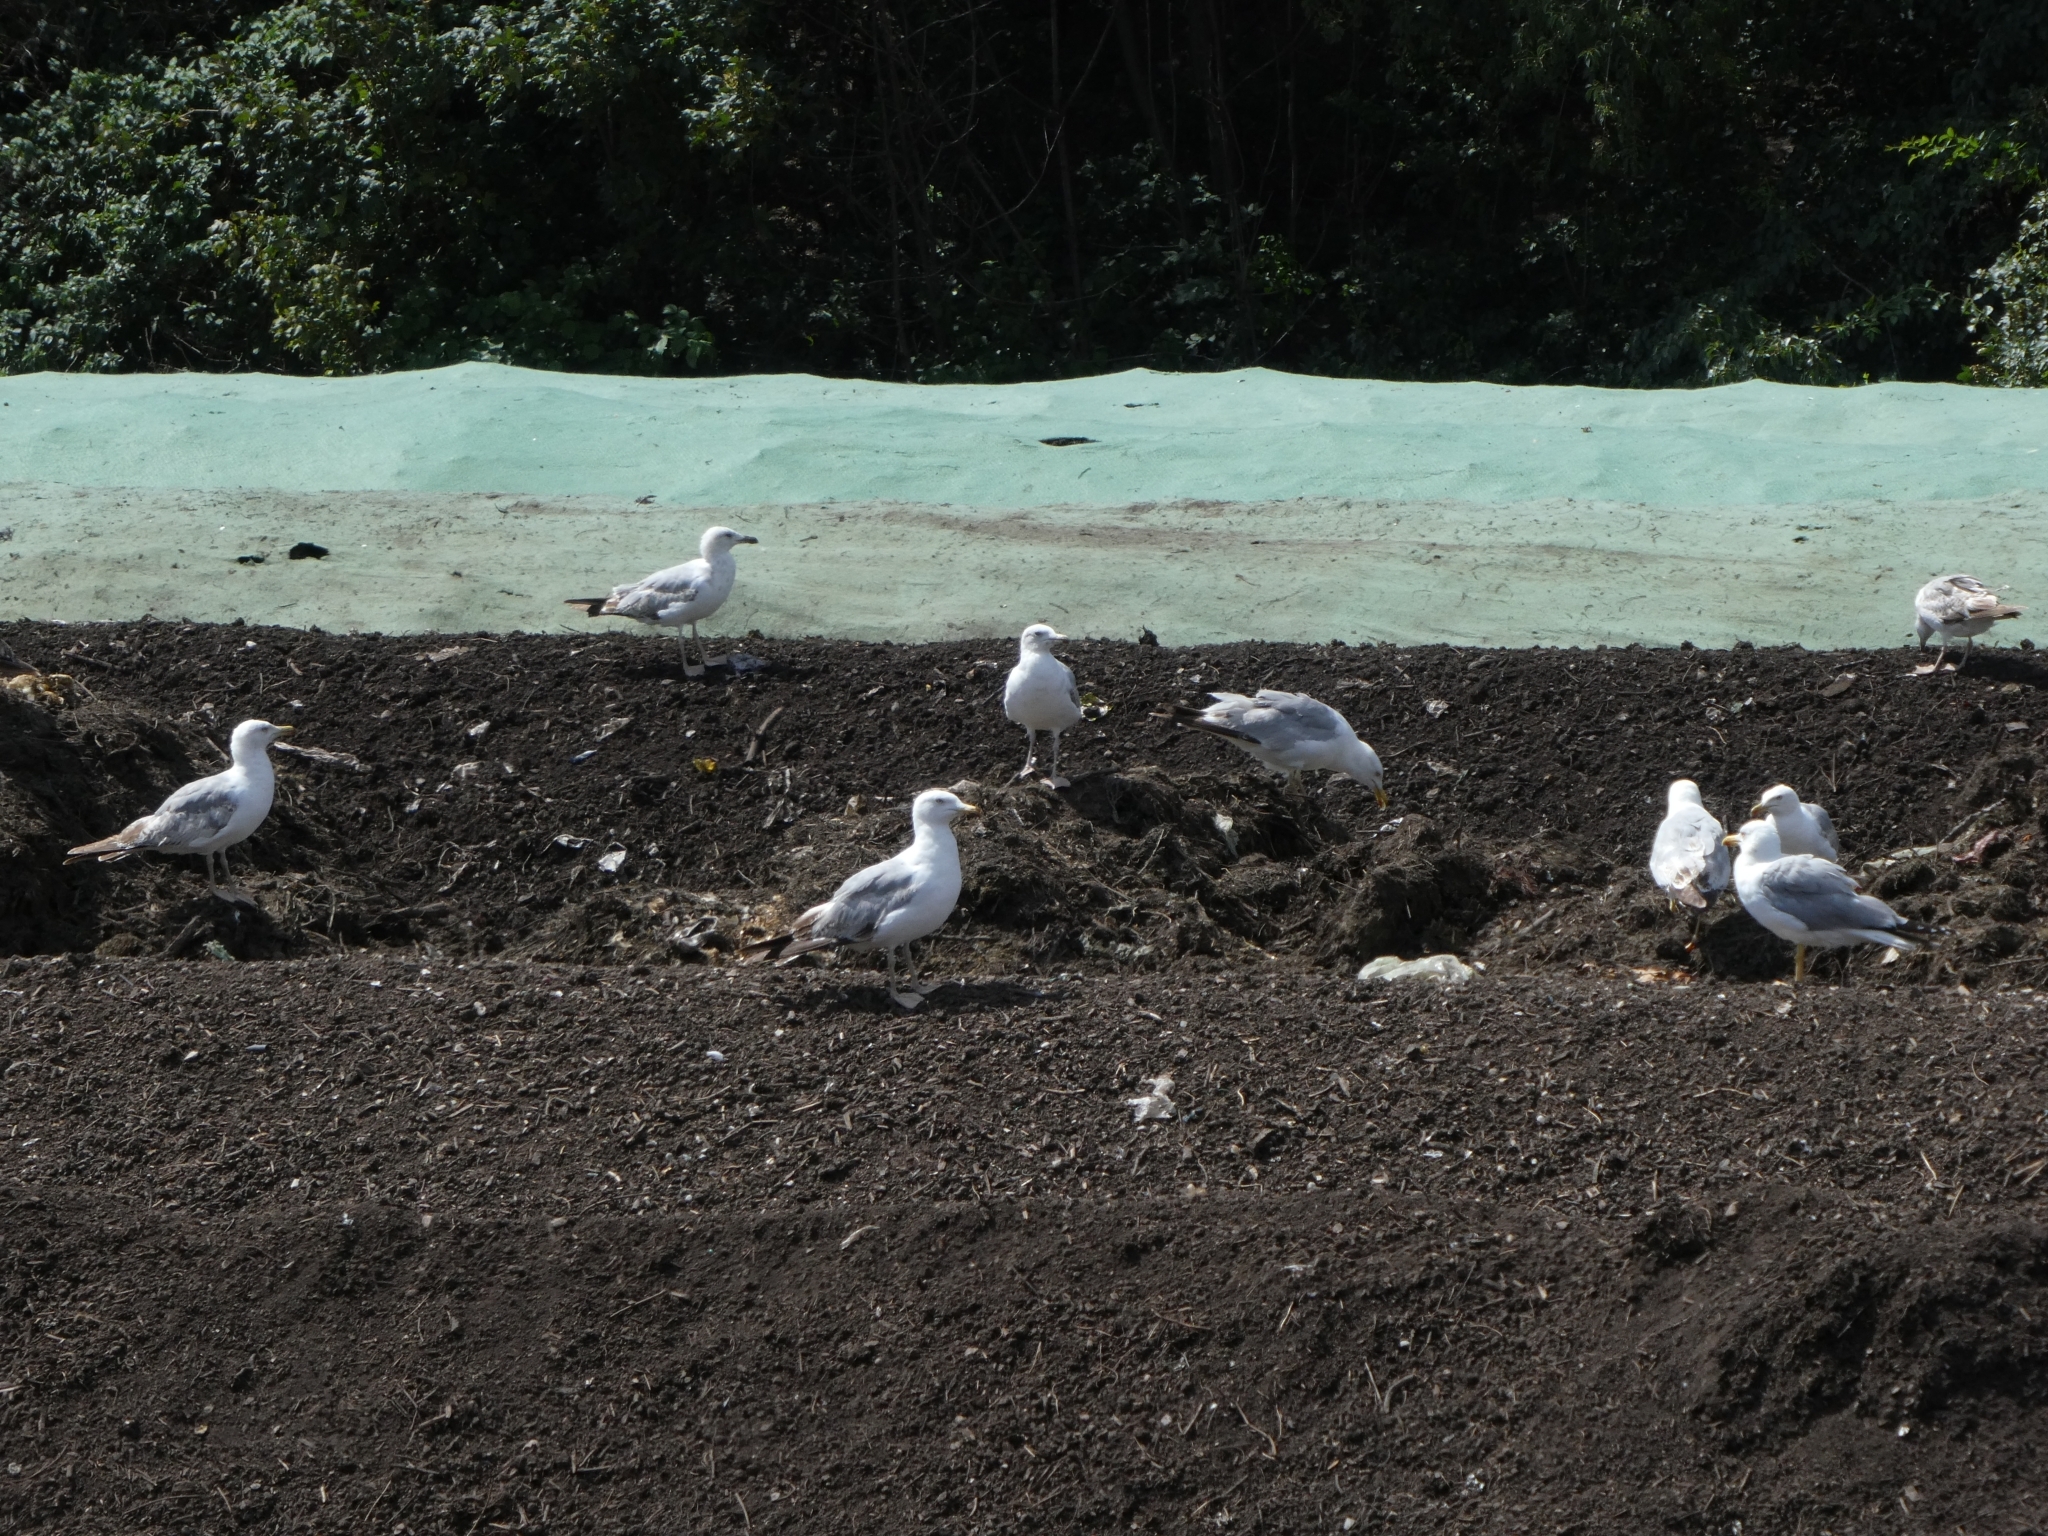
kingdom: Animalia
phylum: Chordata
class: Aves
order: Charadriiformes
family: Laridae
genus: Larus
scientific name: Larus michahellis
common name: Yellow-legged gull
